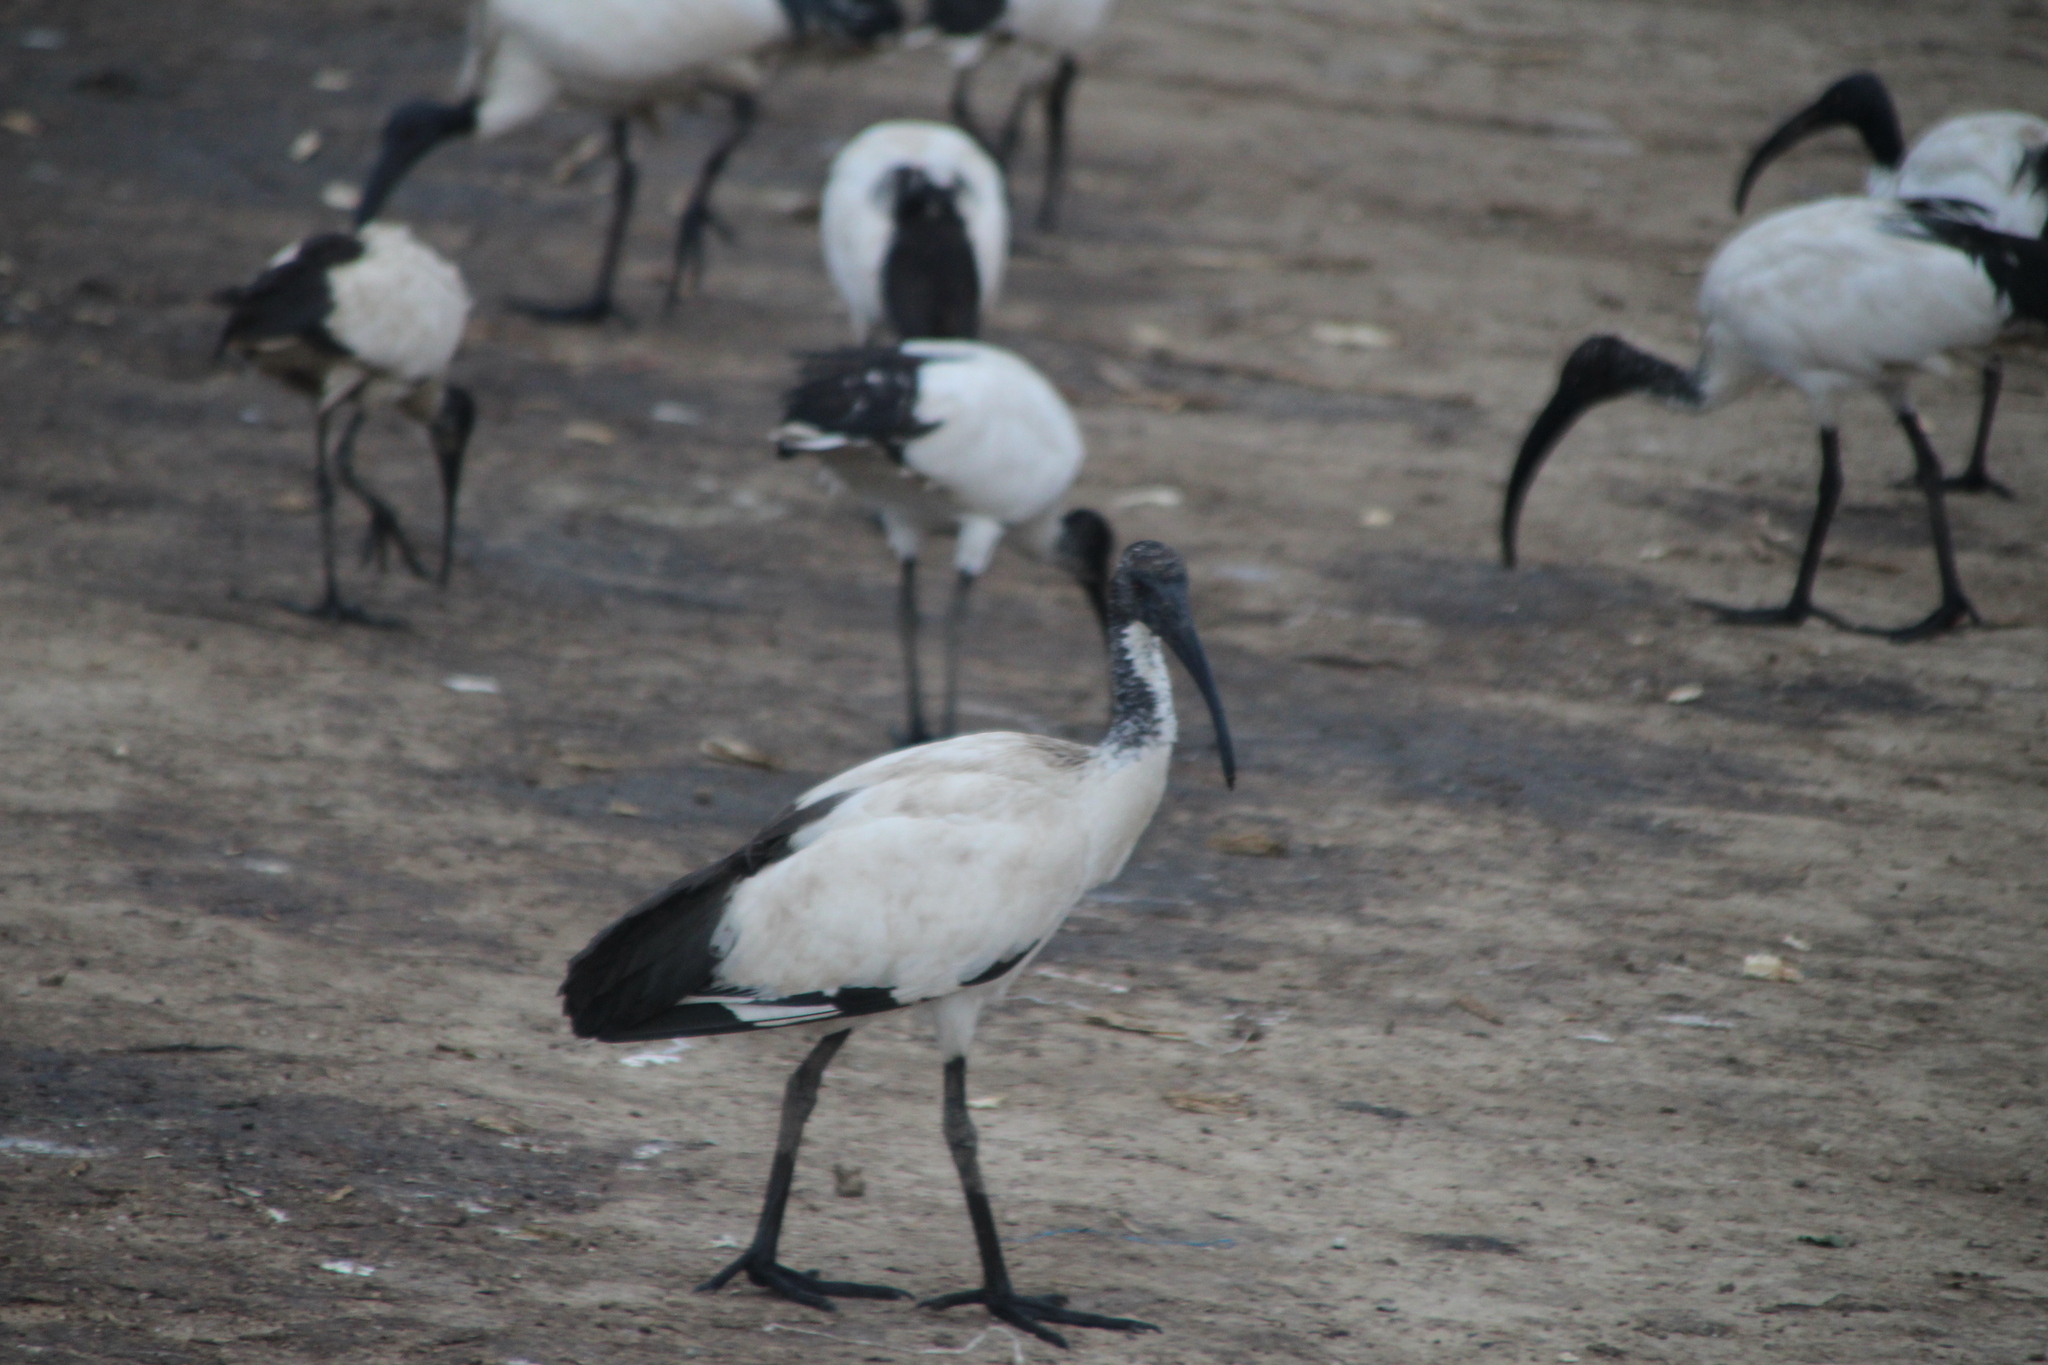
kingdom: Animalia
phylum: Chordata
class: Aves
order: Pelecaniformes
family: Threskiornithidae
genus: Threskiornis
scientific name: Threskiornis aethiopicus
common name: Sacred ibis
